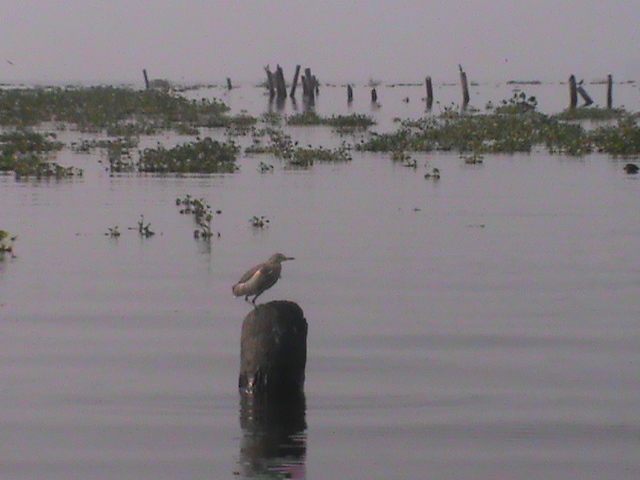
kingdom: Animalia
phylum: Chordata
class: Aves
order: Pelecaniformes
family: Ardeidae
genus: Ardeola
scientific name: Ardeola grayii
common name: Indian pond heron
